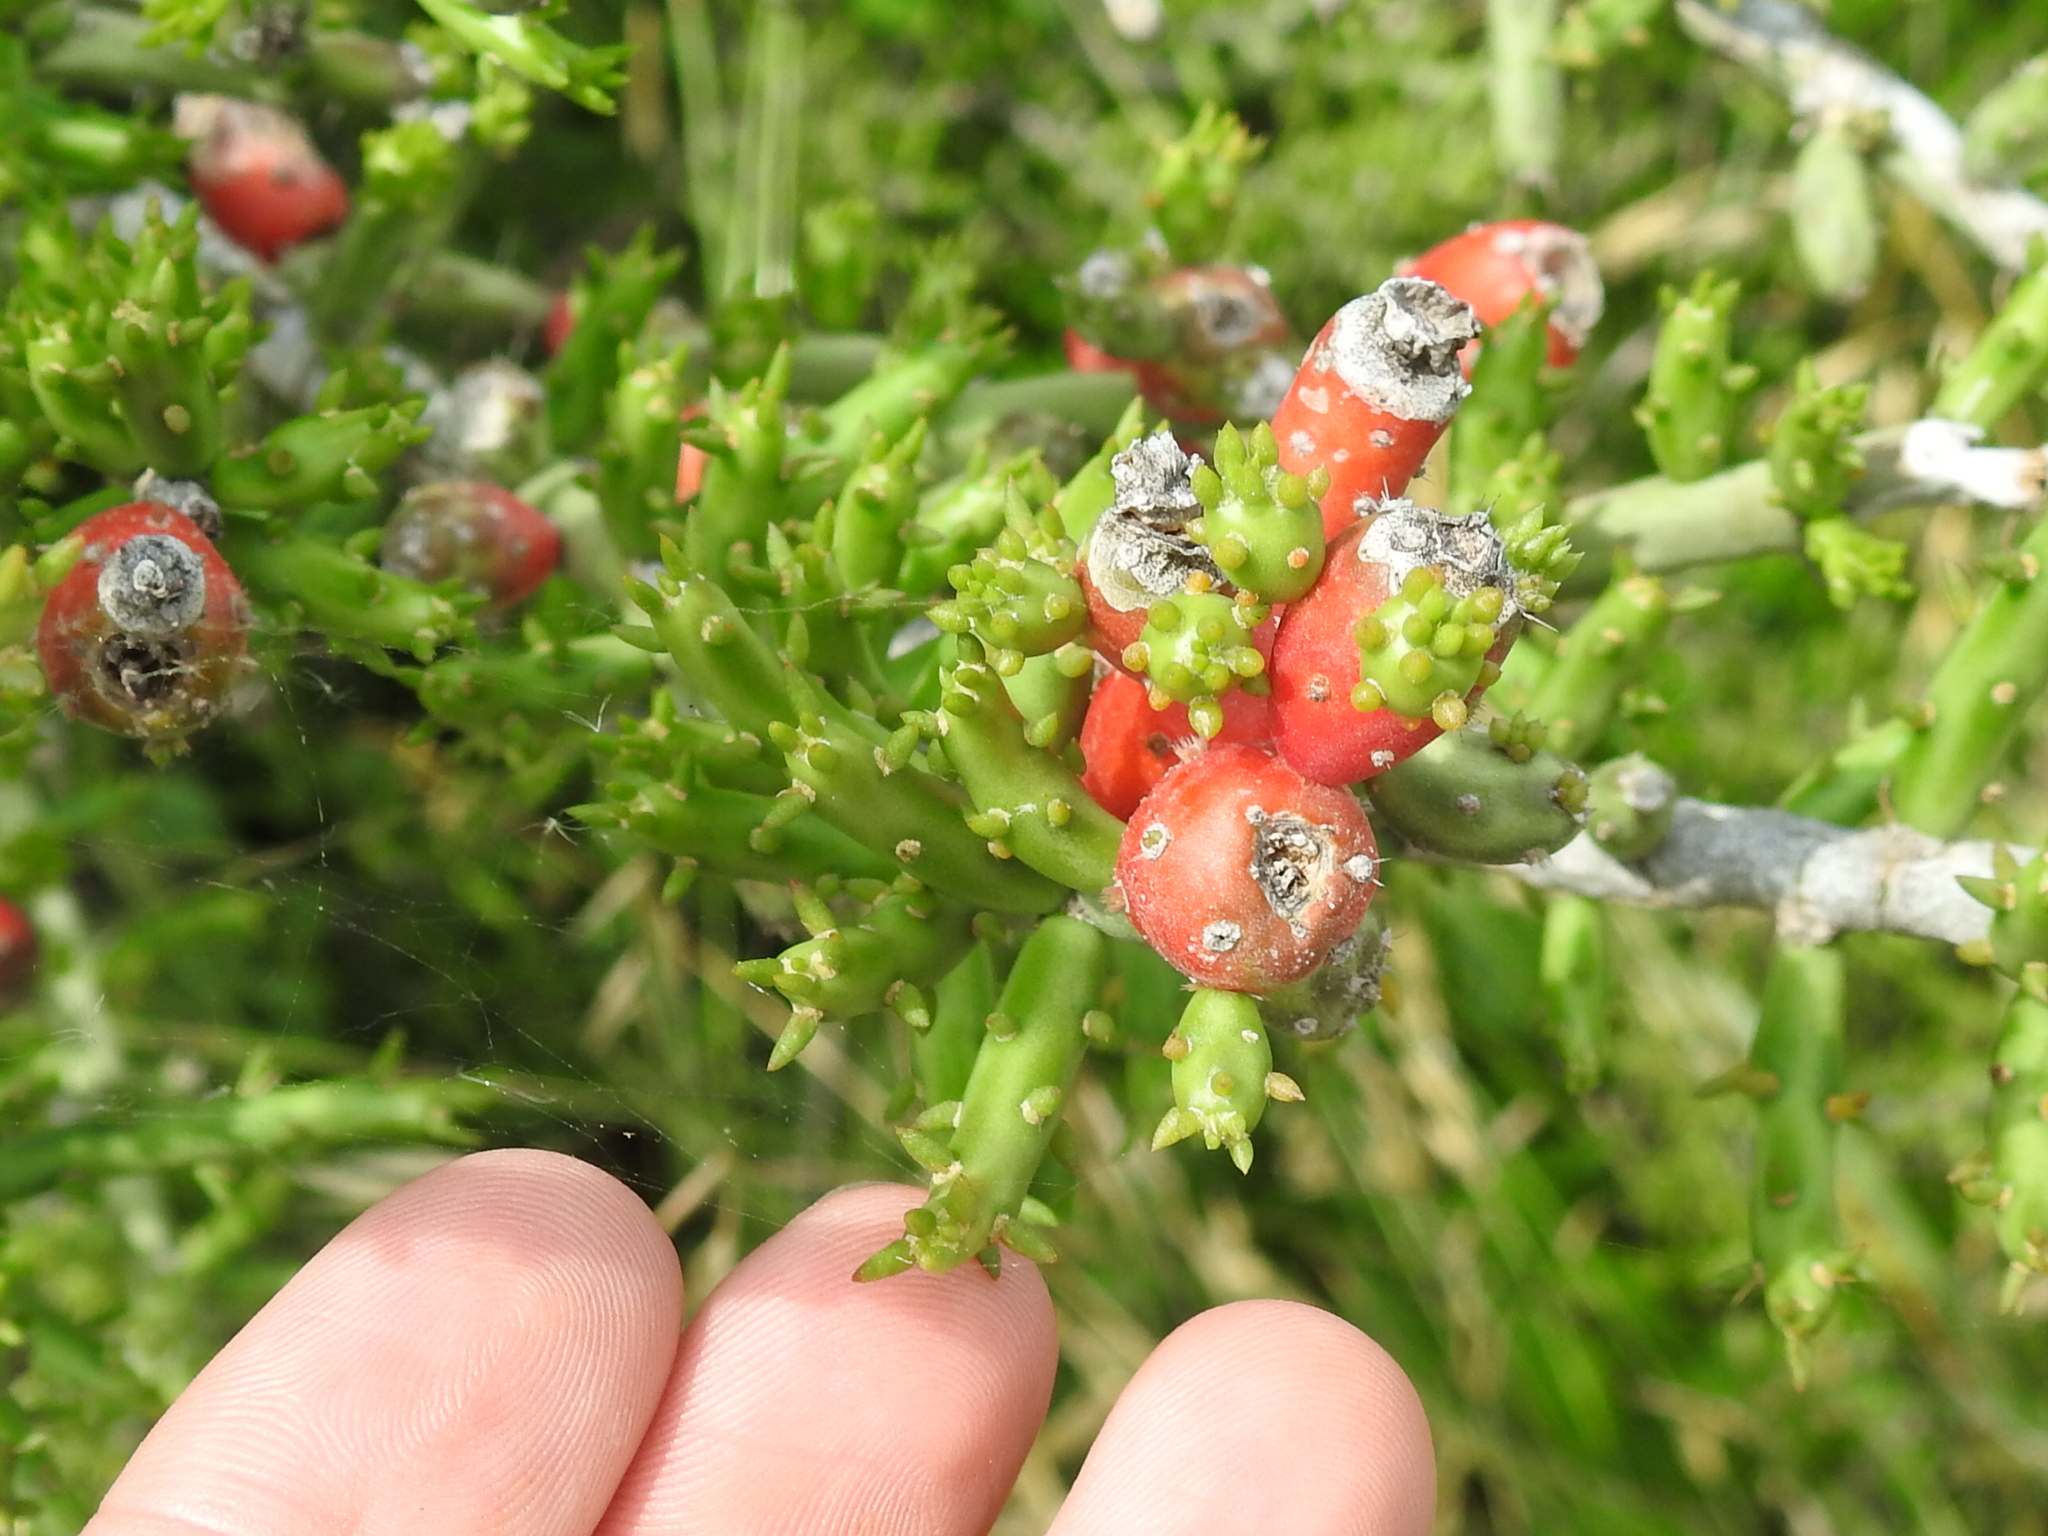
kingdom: Plantae
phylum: Tracheophyta
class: Magnoliopsida
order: Caryophyllales
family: Cactaceae
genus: Cylindropuntia
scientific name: Cylindropuntia leptocaulis
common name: Christmas cactus
